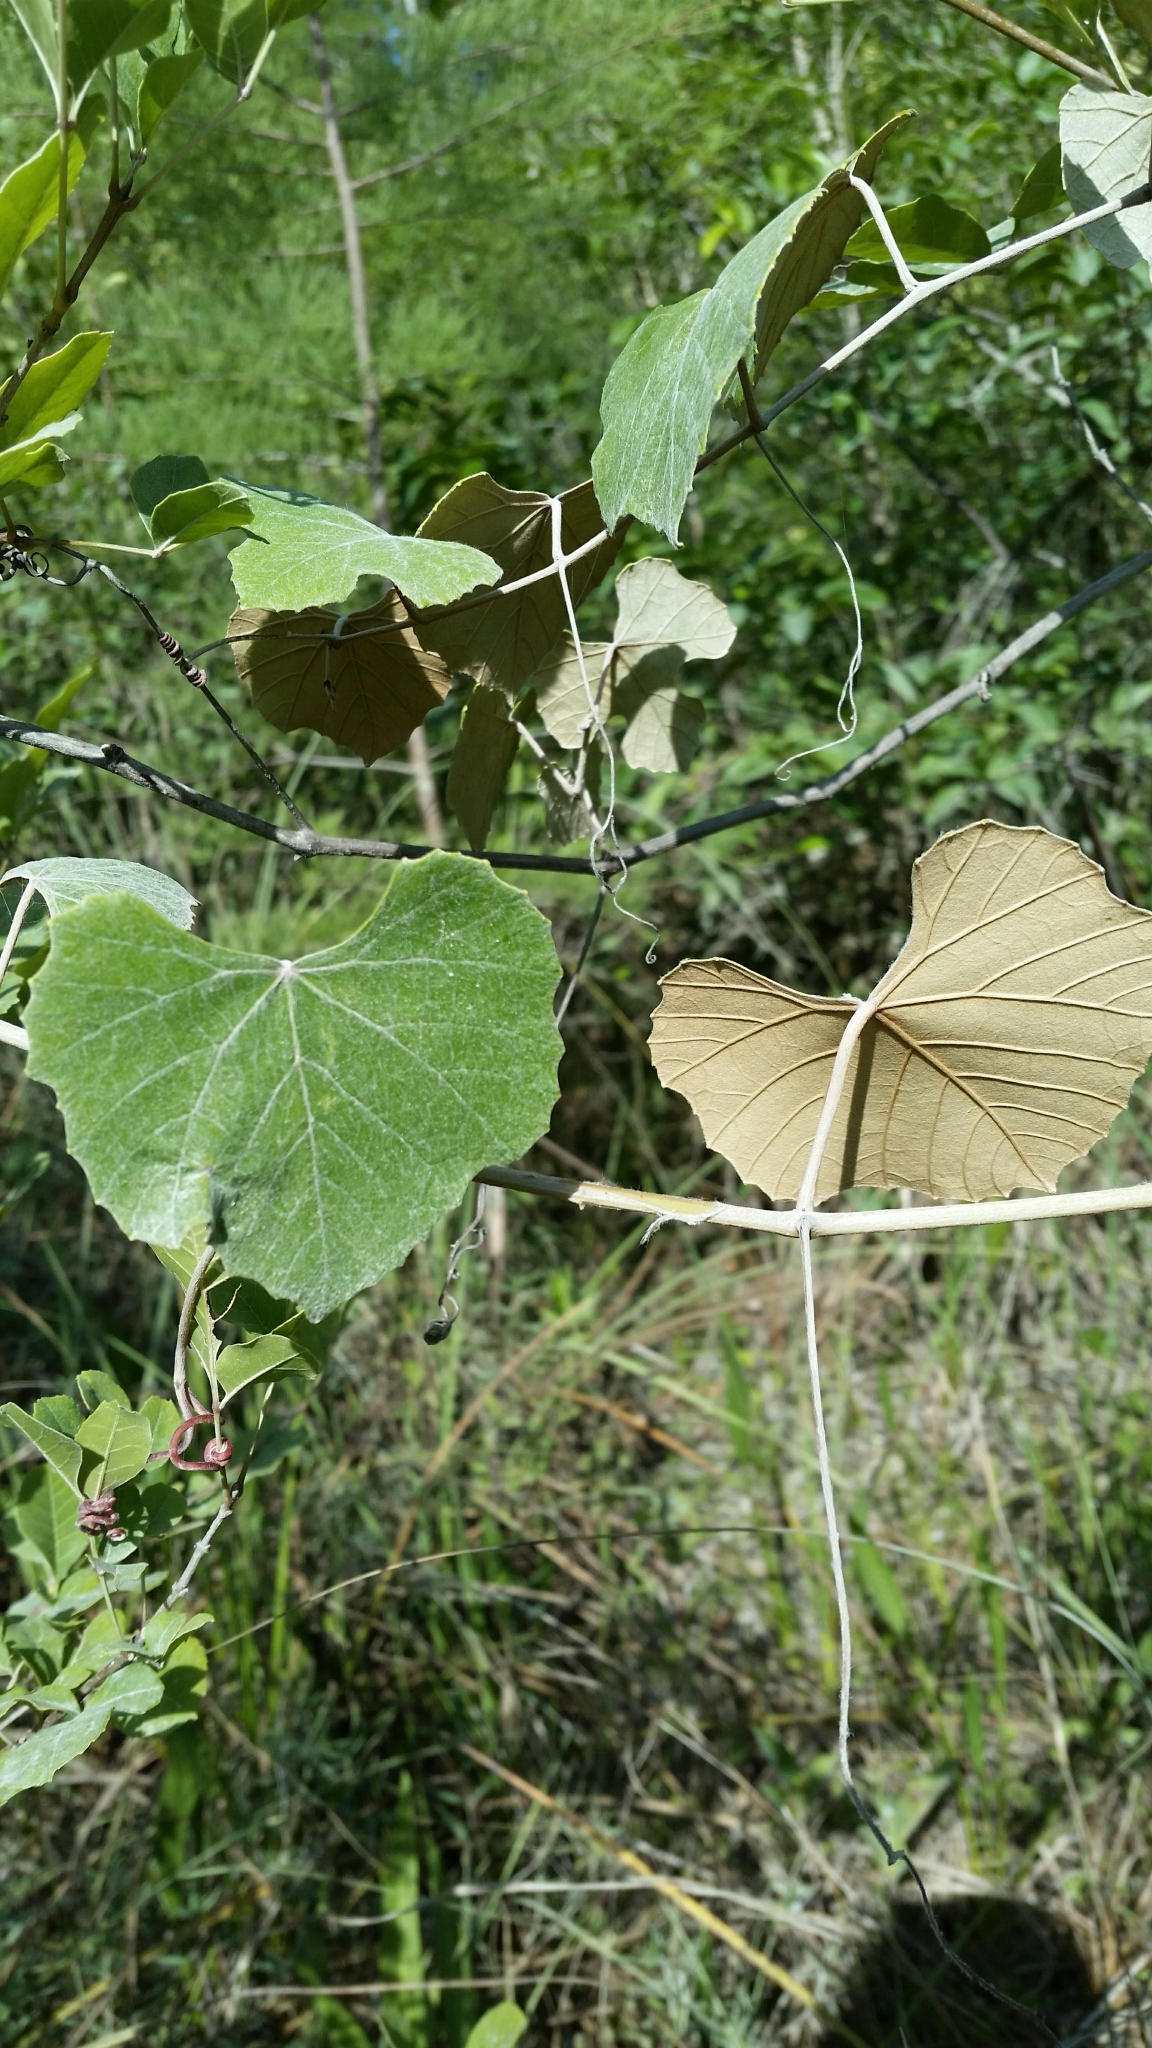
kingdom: Plantae
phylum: Tracheophyta
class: Magnoliopsida
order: Vitales
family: Vitaceae
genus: Vitis
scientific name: Vitis shuttleworthii
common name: Caloosa grape
